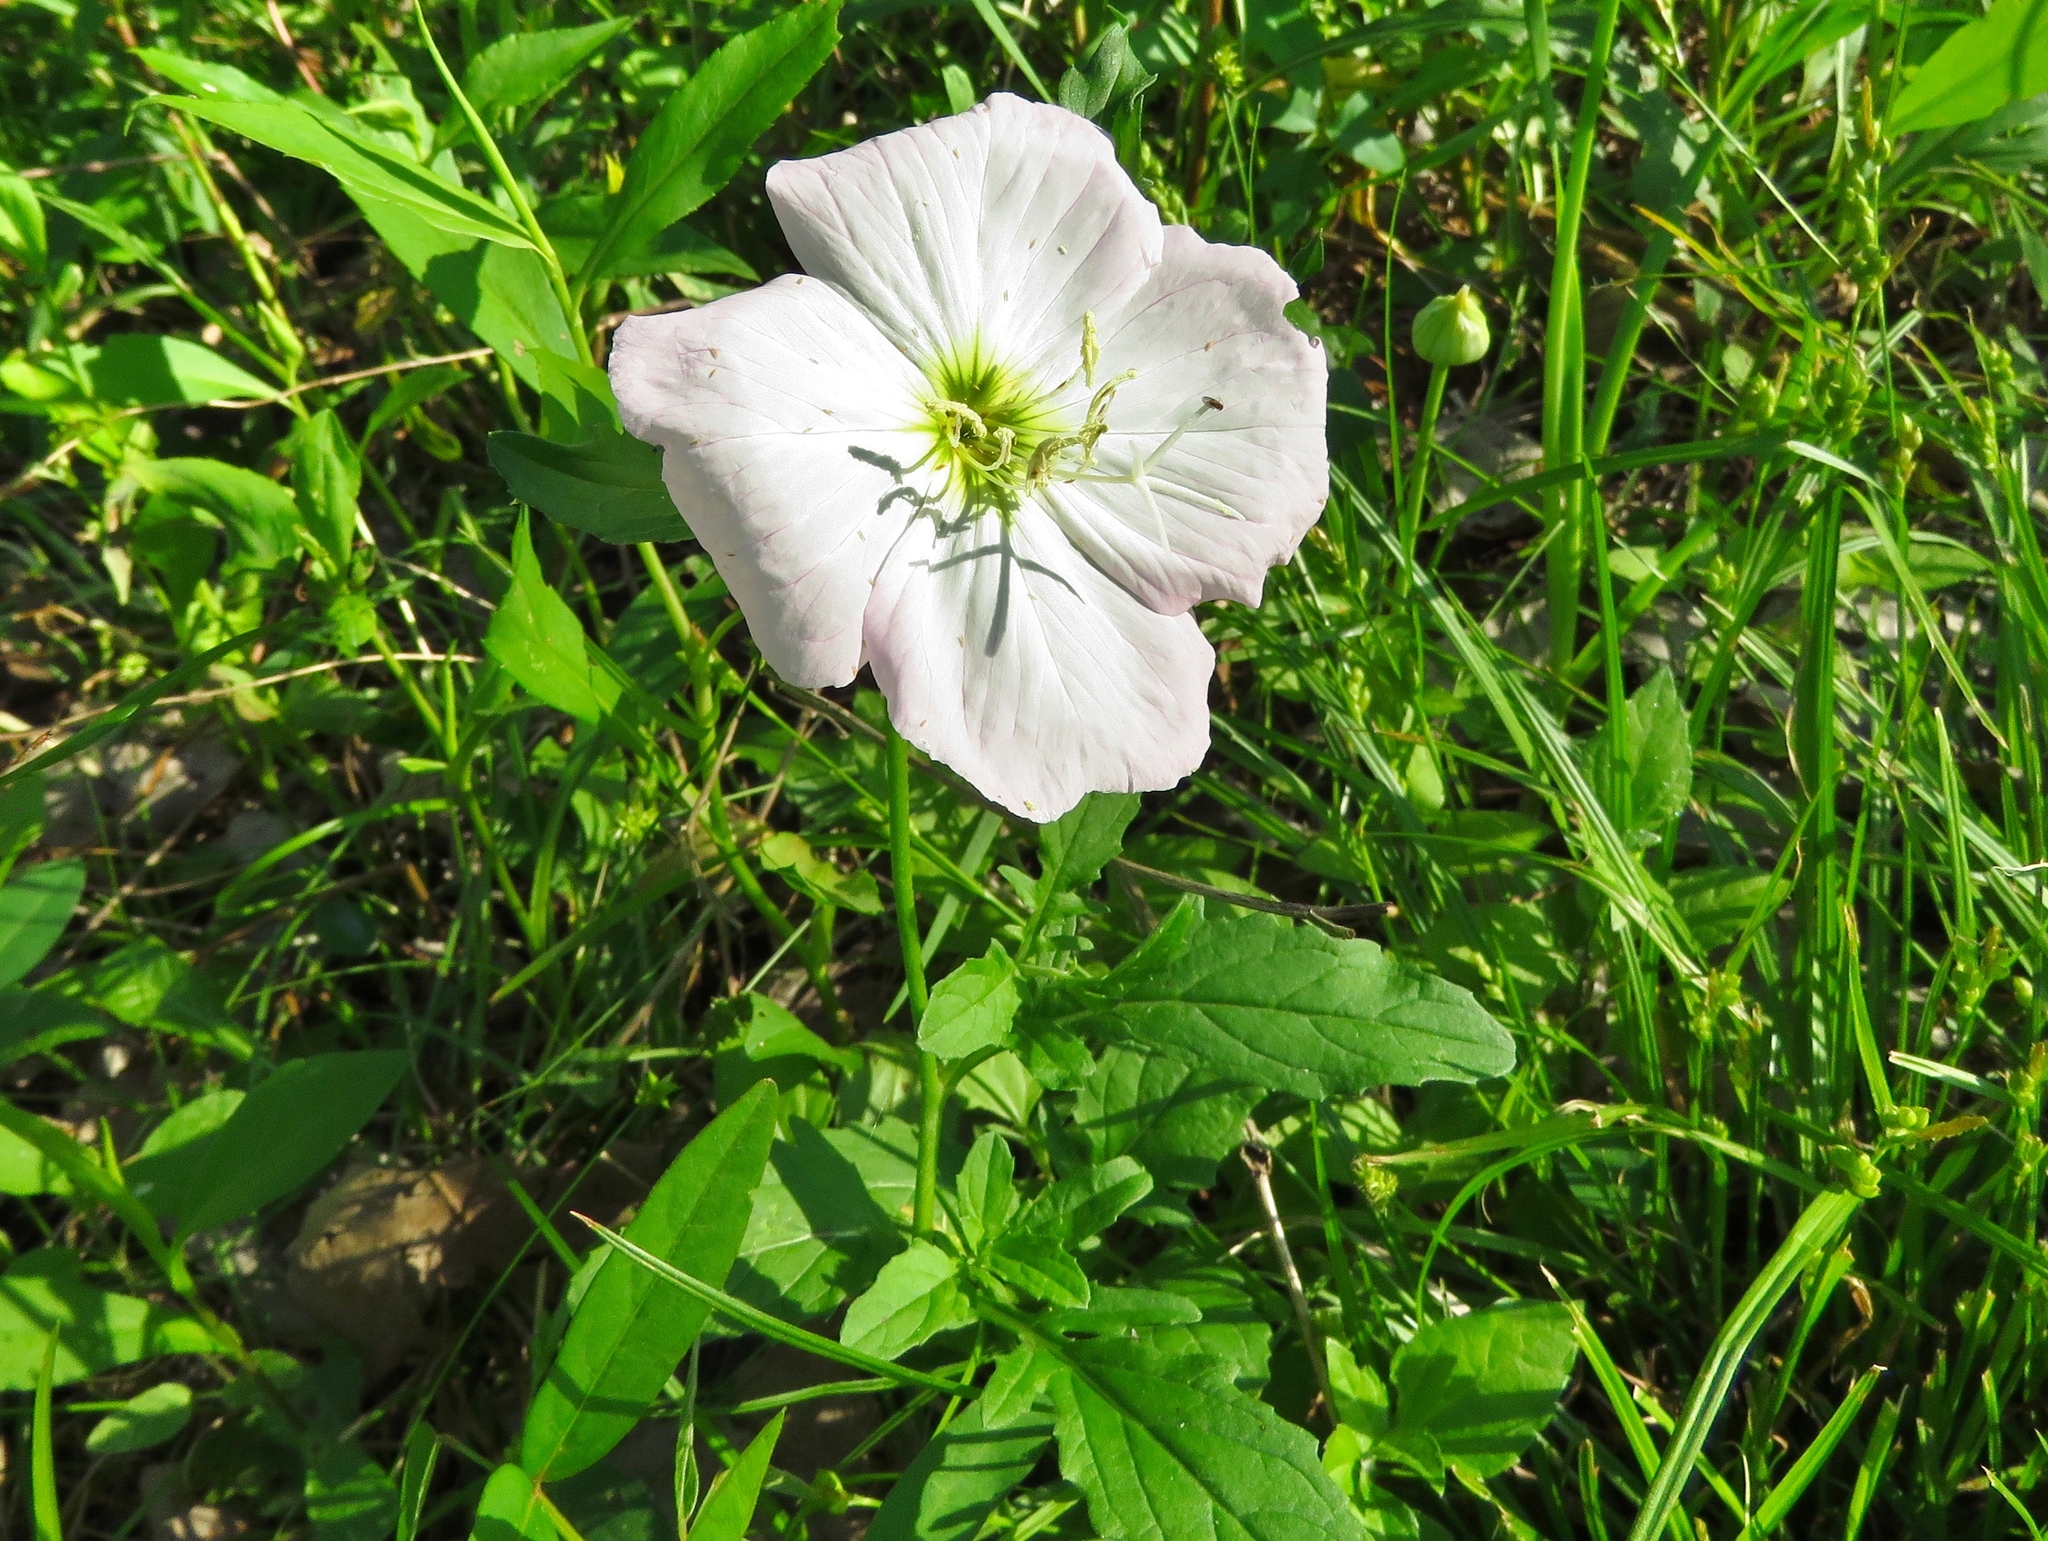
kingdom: Plantae
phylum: Tracheophyta
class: Magnoliopsida
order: Myrtales
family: Onagraceae
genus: Oenothera
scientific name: Oenothera speciosa
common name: White evening-primrose
